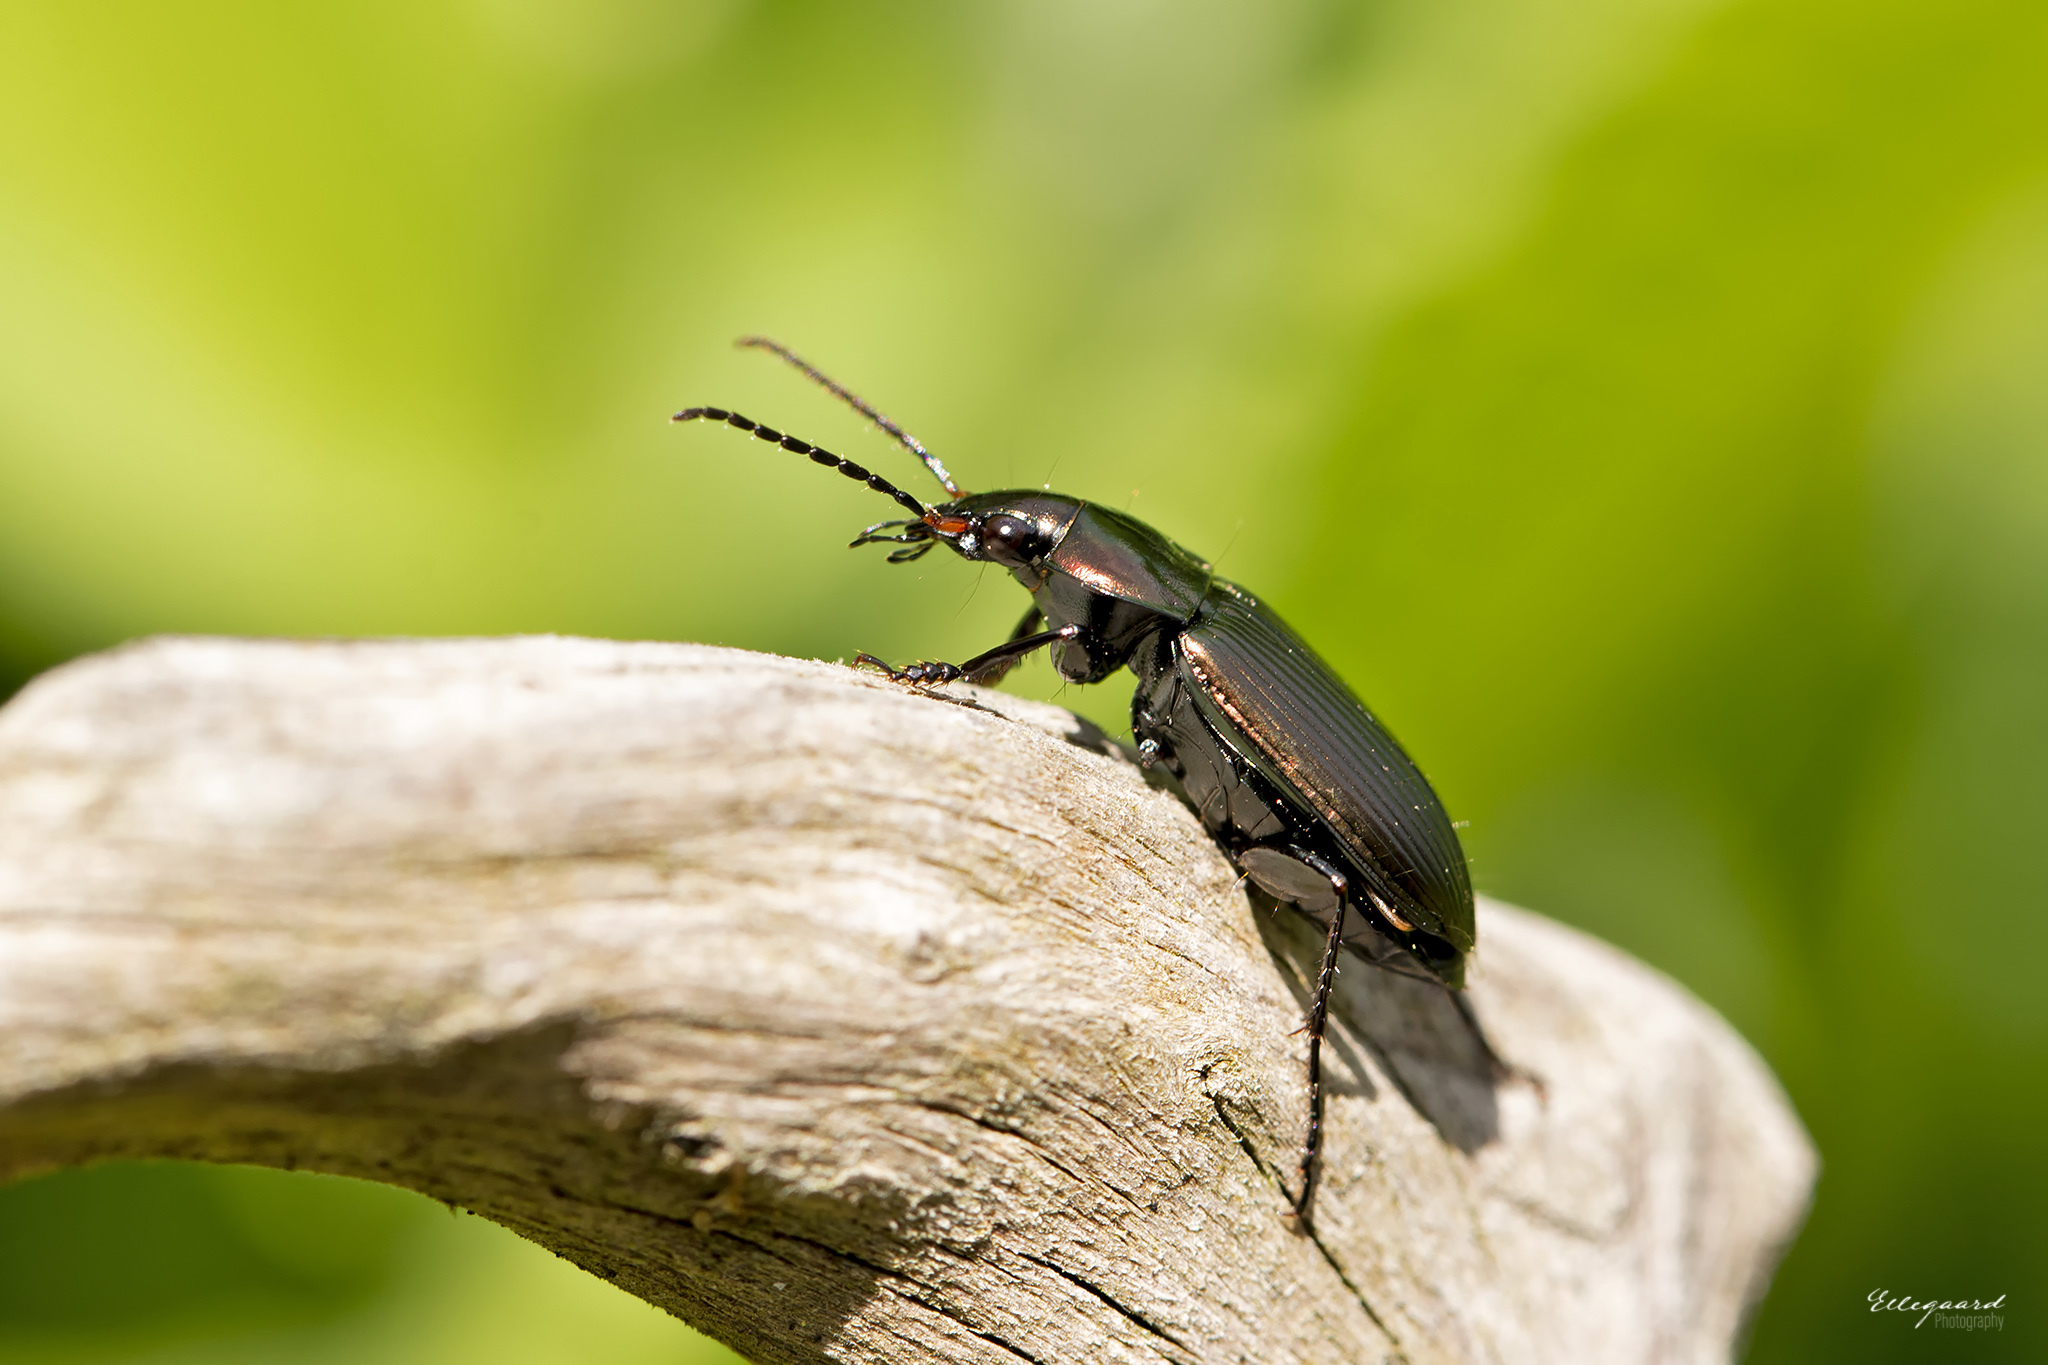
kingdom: Animalia
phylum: Arthropoda
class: Insecta
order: Coleoptera
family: Carabidae
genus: Poecilus
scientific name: Poecilus cupreus
